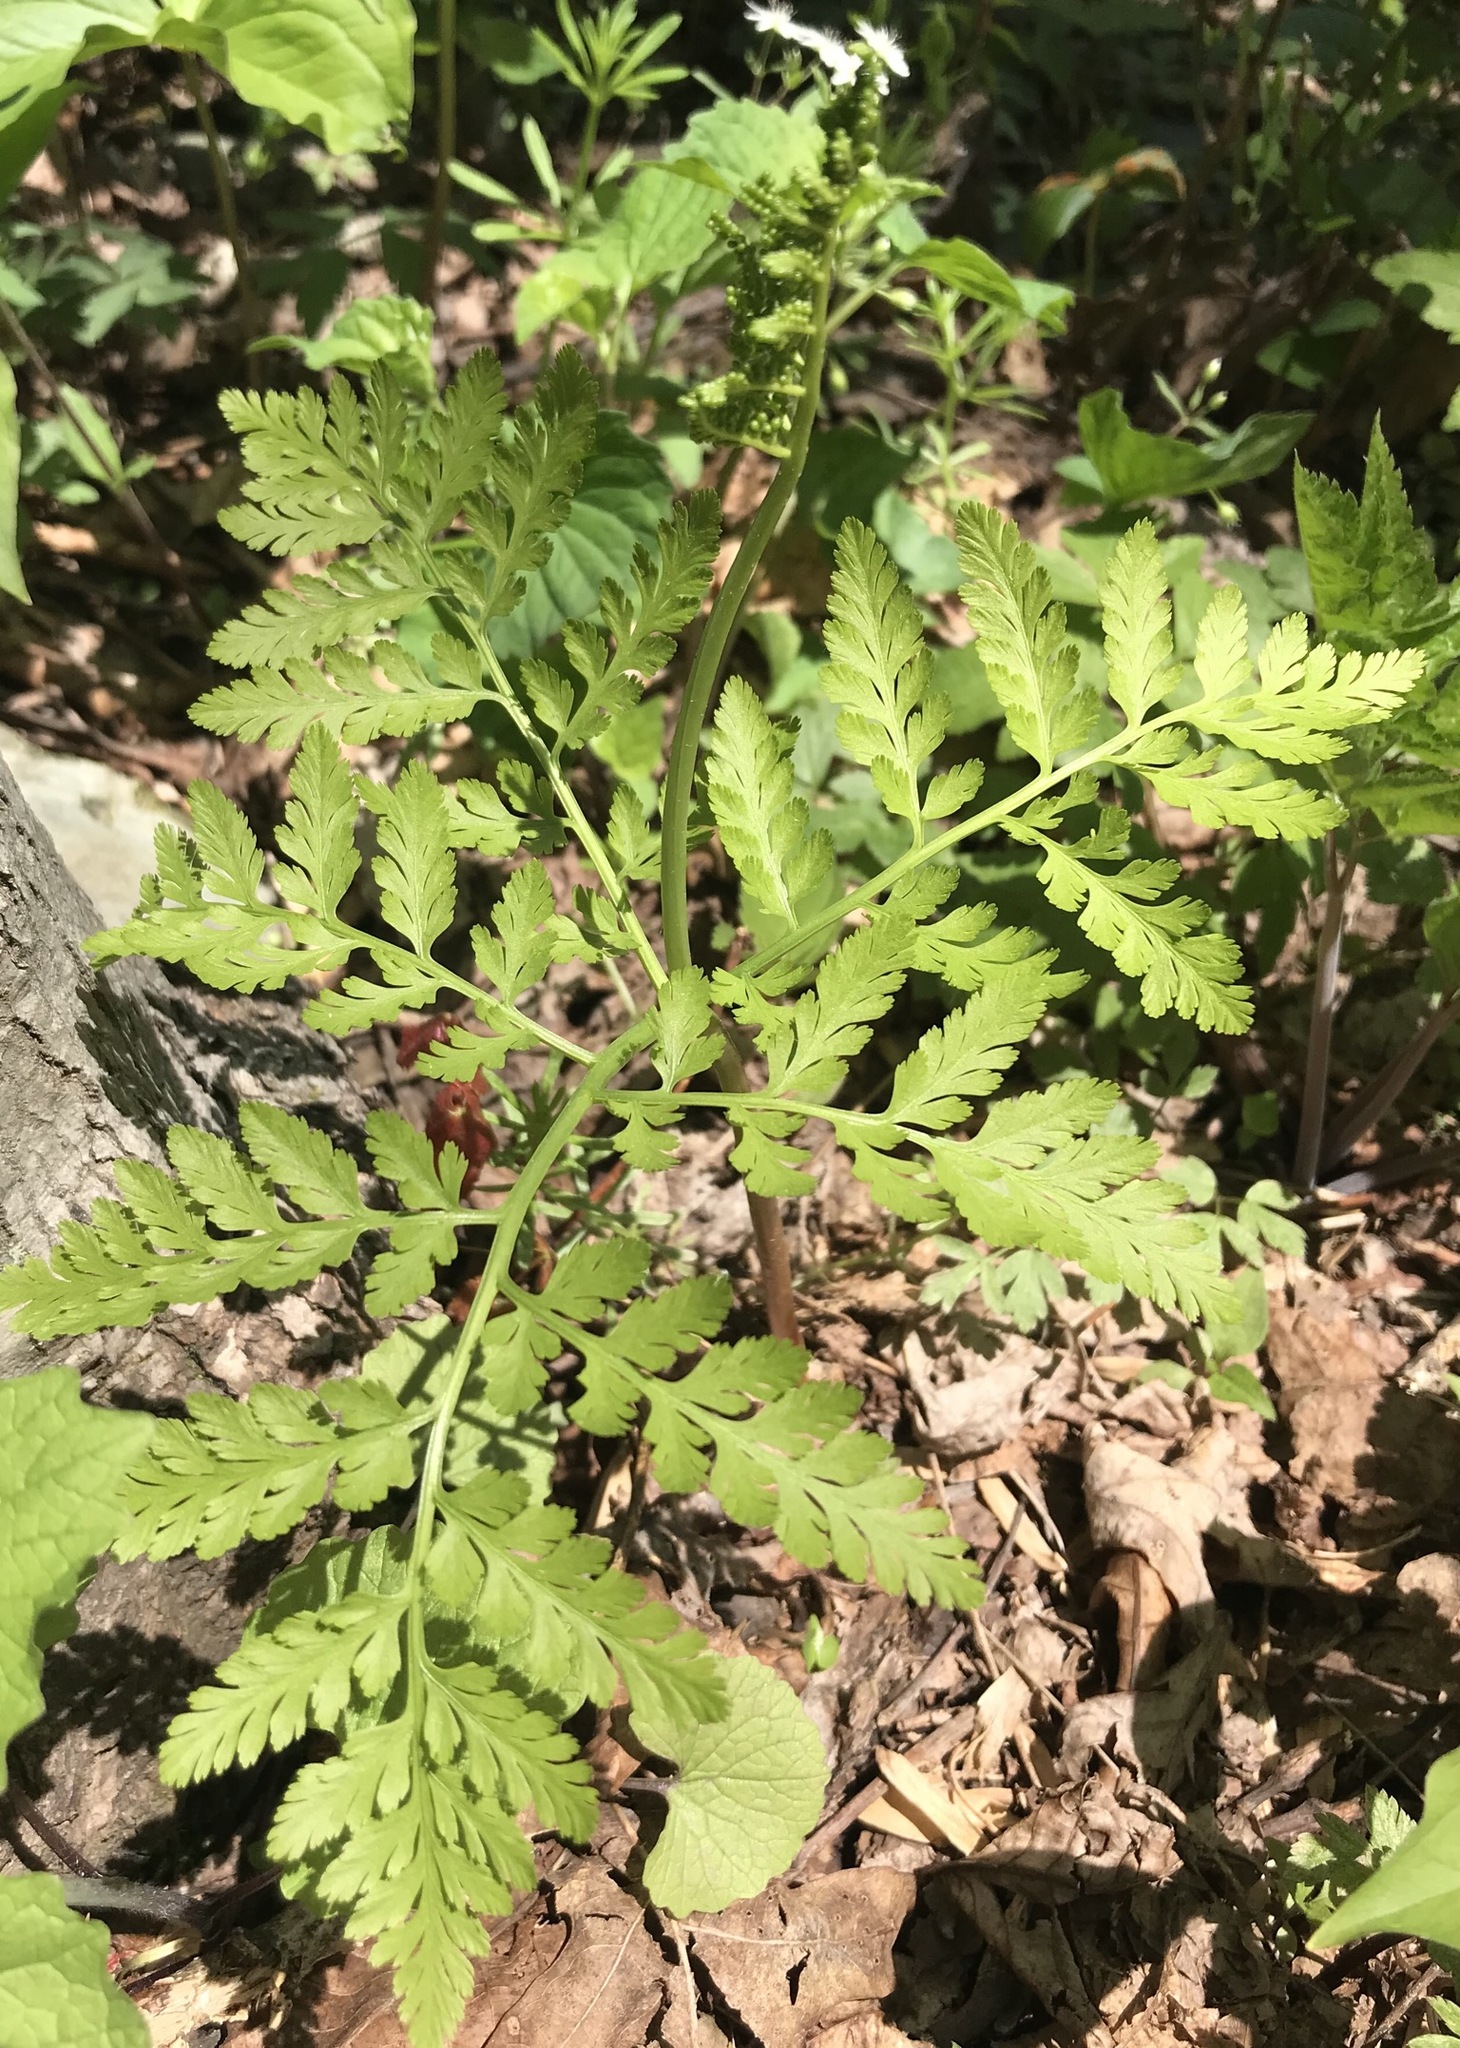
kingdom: Plantae
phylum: Tracheophyta
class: Polypodiopsida
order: Ophioglossales
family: Ophioglossaceae
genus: Botrypus
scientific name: Botrypus virginianus
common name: Common grapefern
